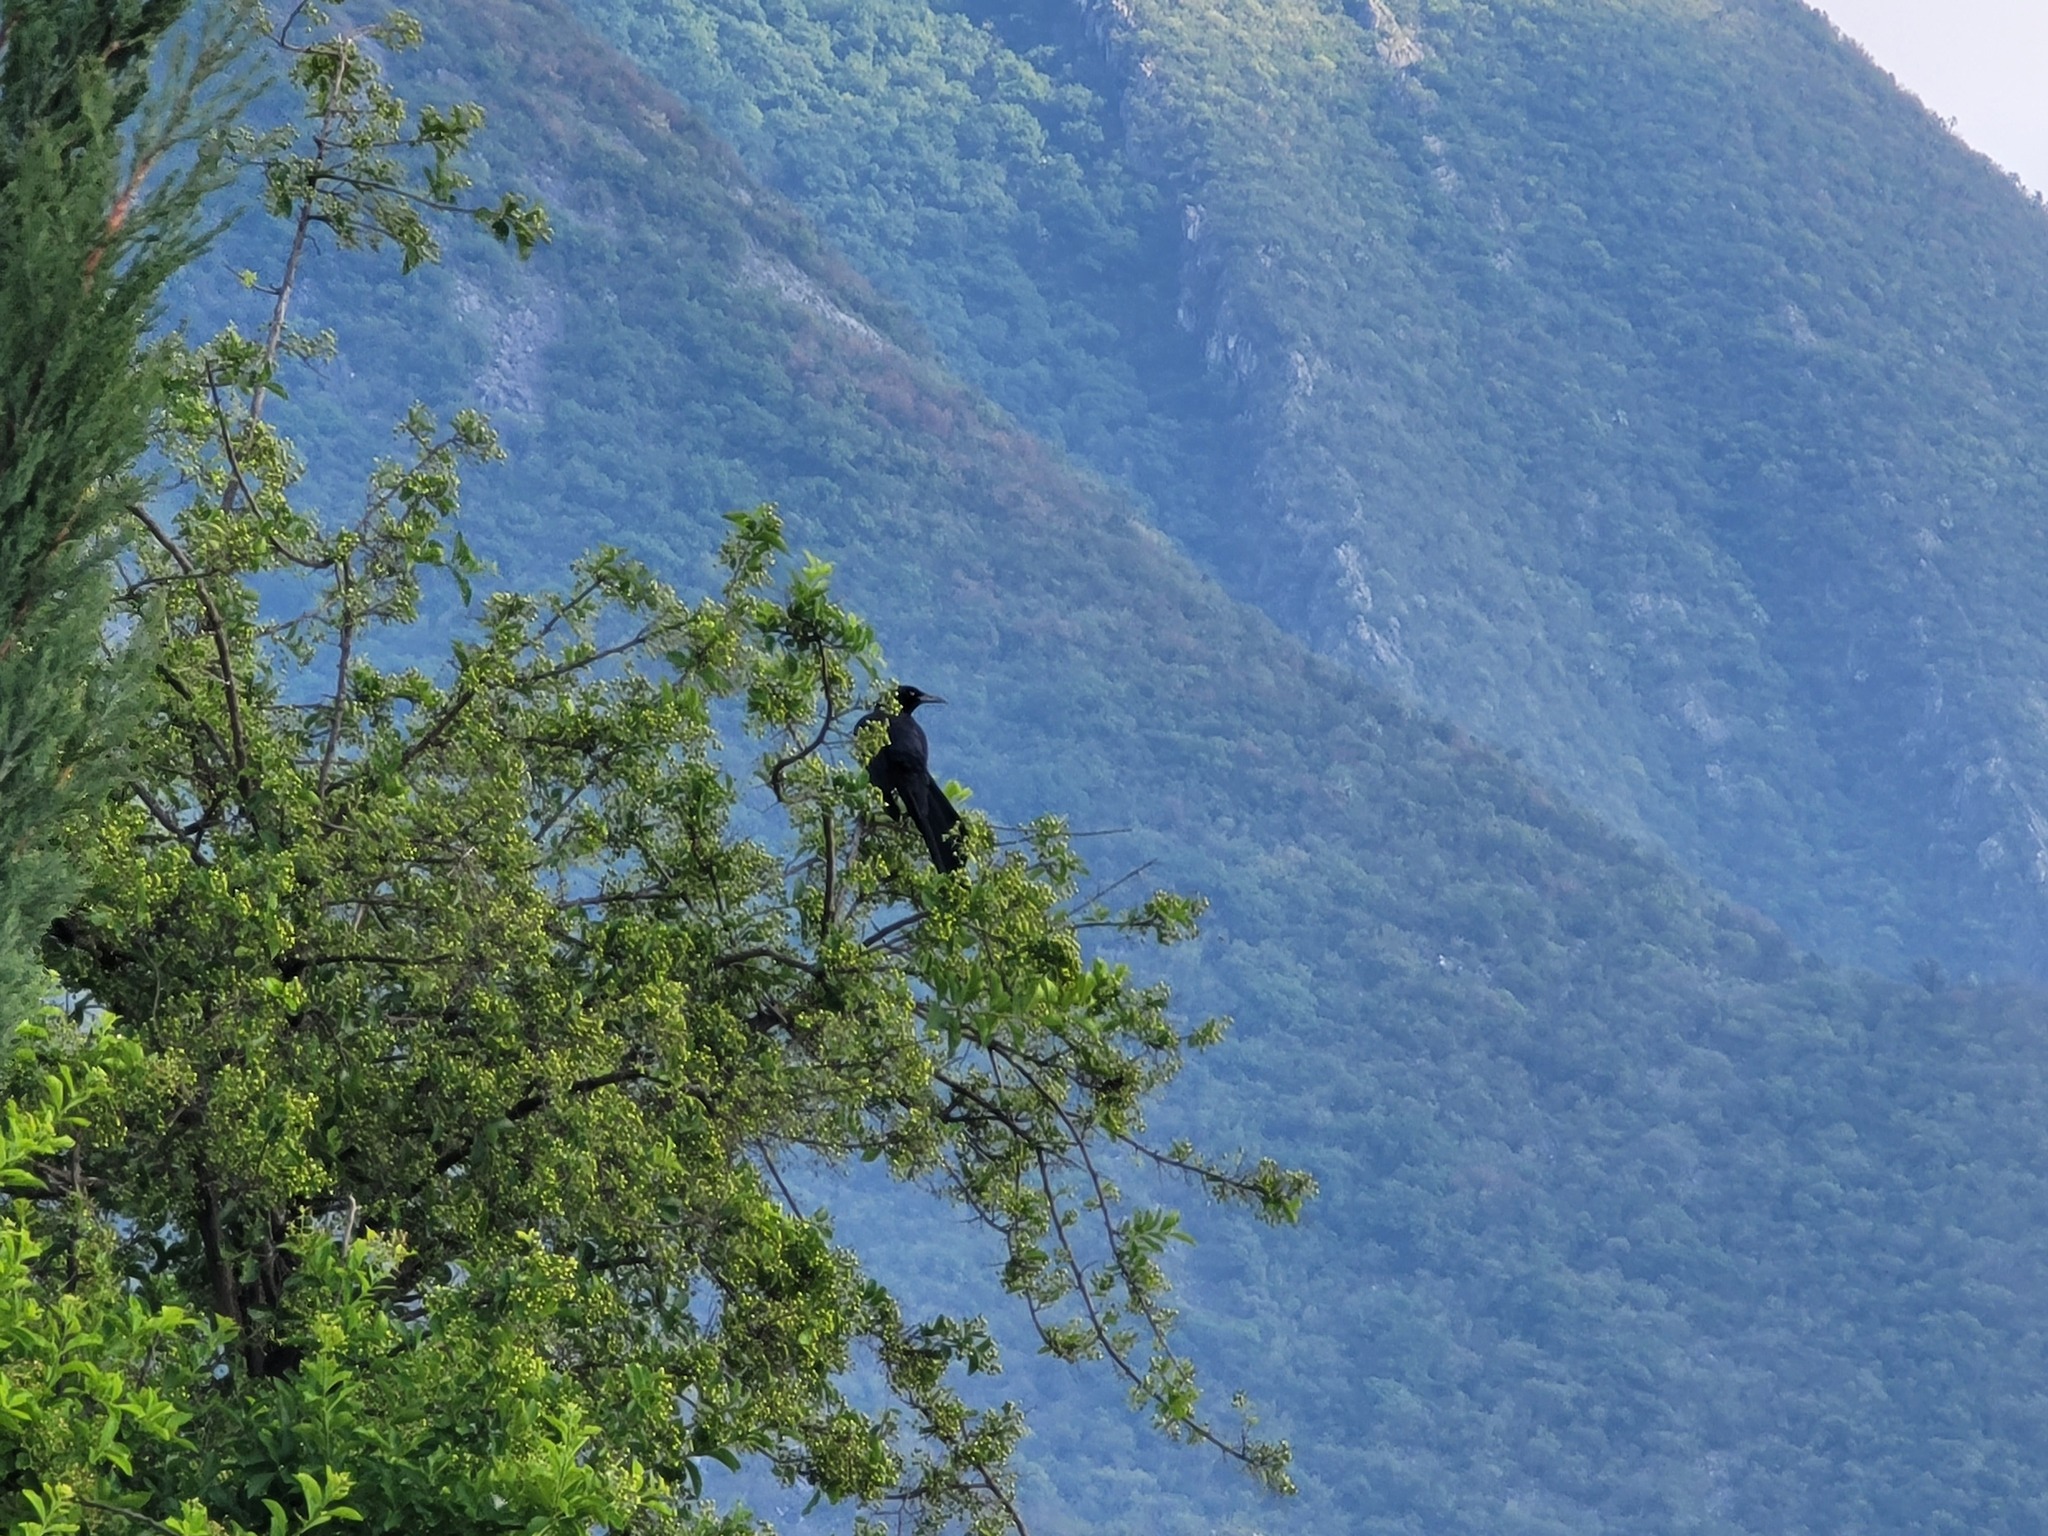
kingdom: Animalia
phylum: Chordata
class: Aves
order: Passeriformes
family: Icteridae
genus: Quiscalus
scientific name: Quiscalus mexicanus
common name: Great-tailed grackle
